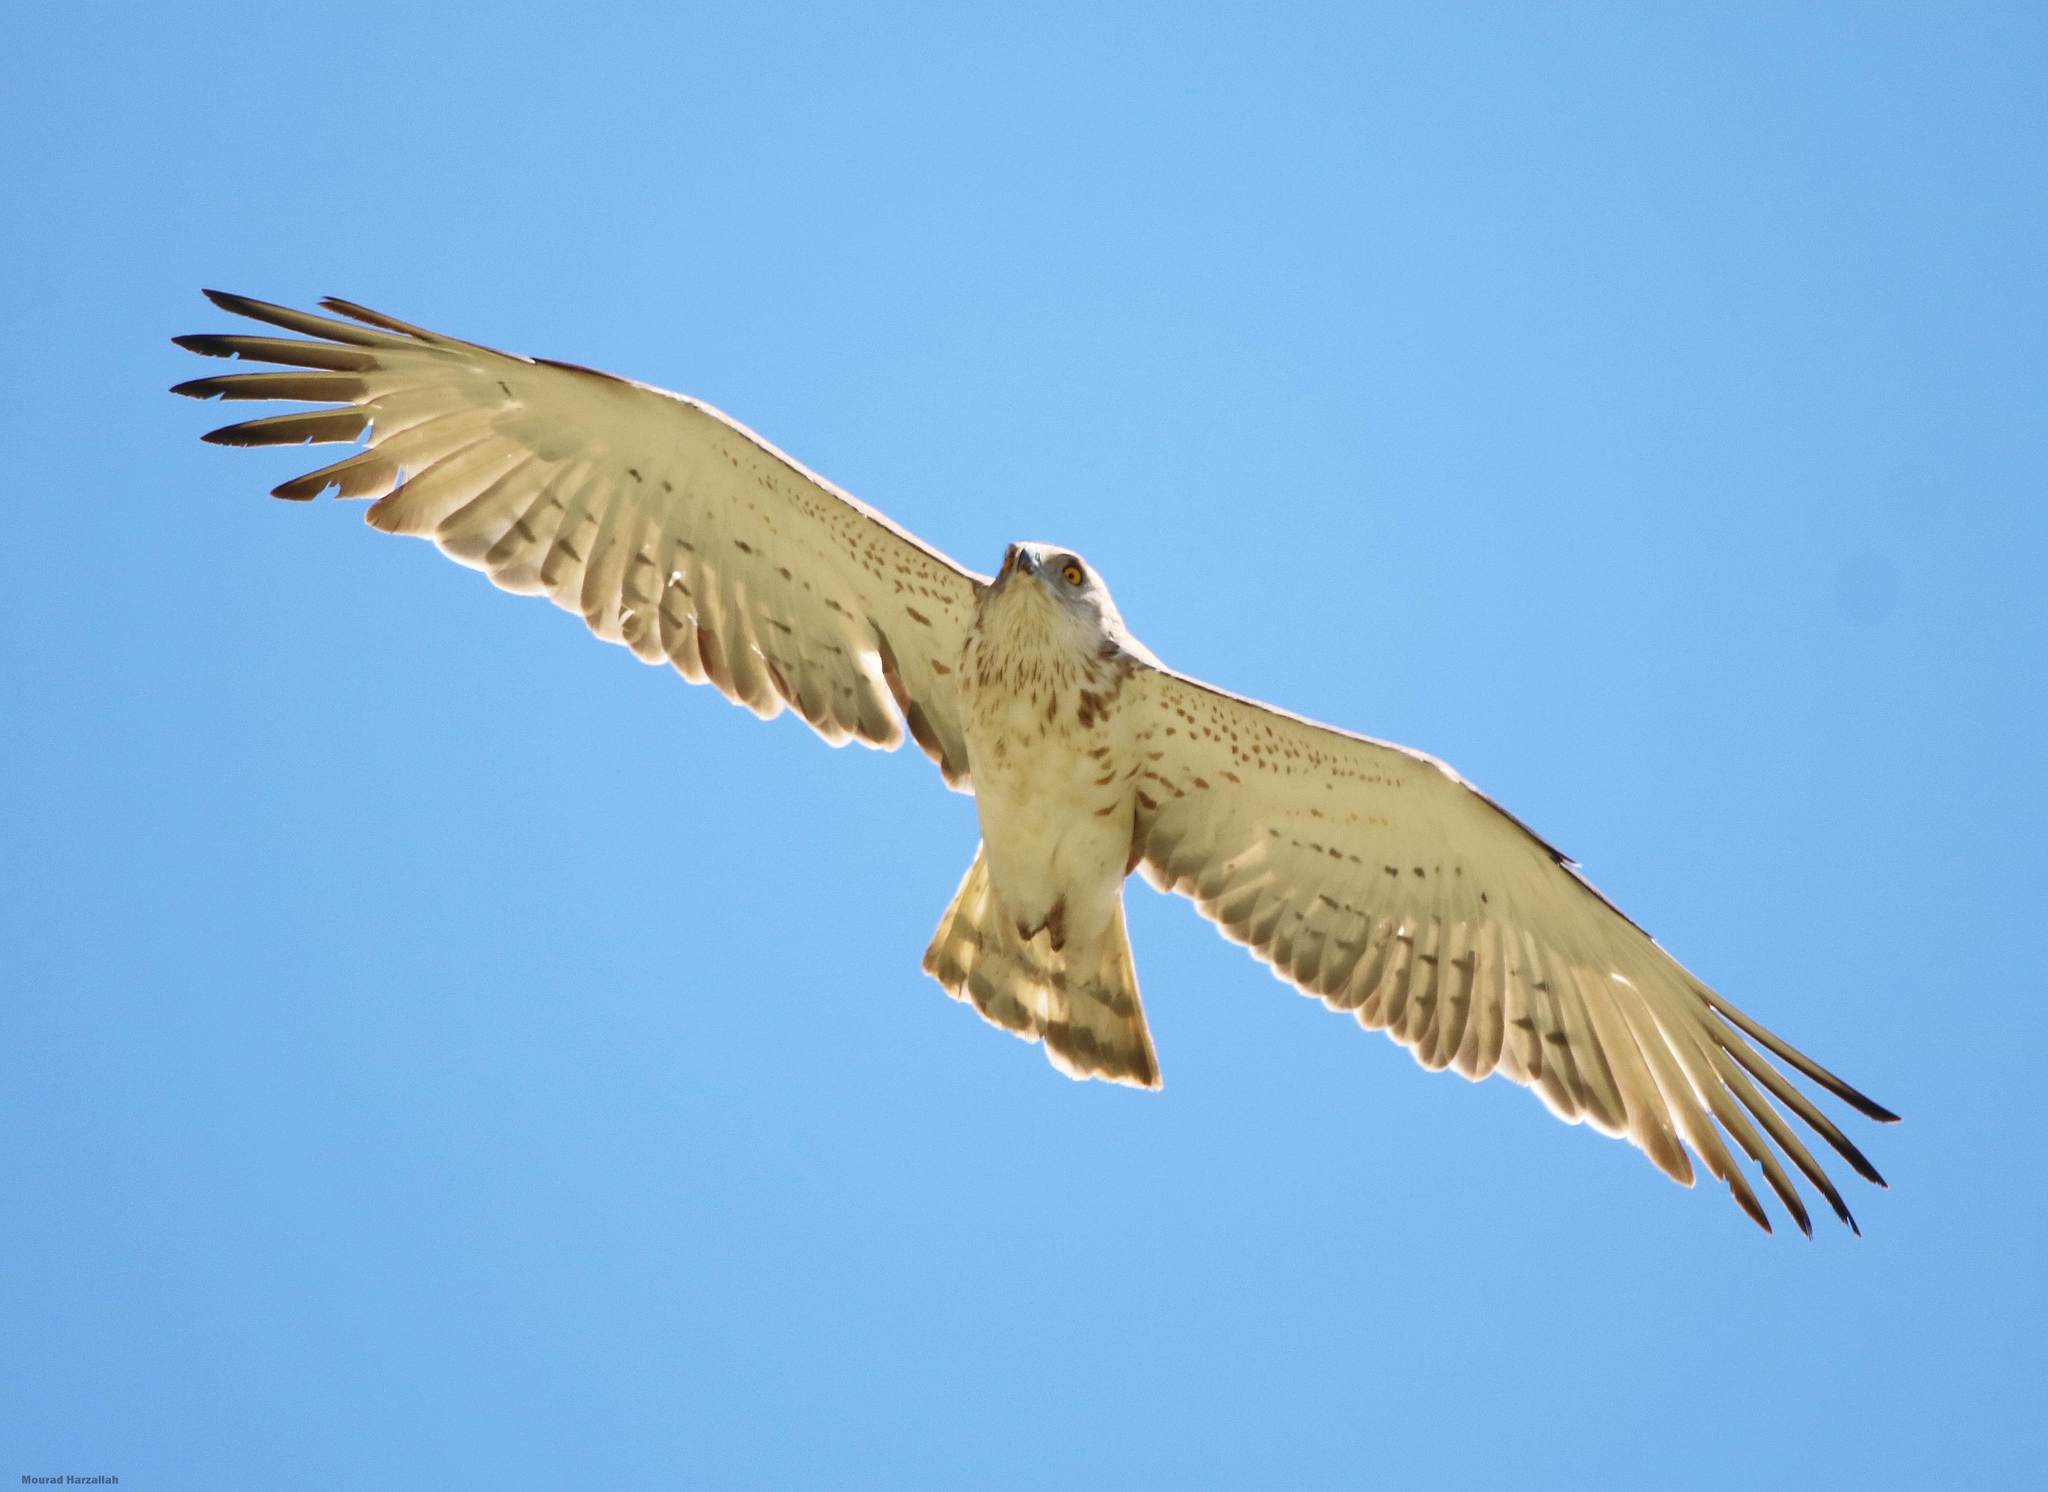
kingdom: Animalia
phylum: Chordata
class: Aves
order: Accipitriformes
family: Accipitridae
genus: Circaetus
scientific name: Circaetus gallicus
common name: Short-toed snake eagle
